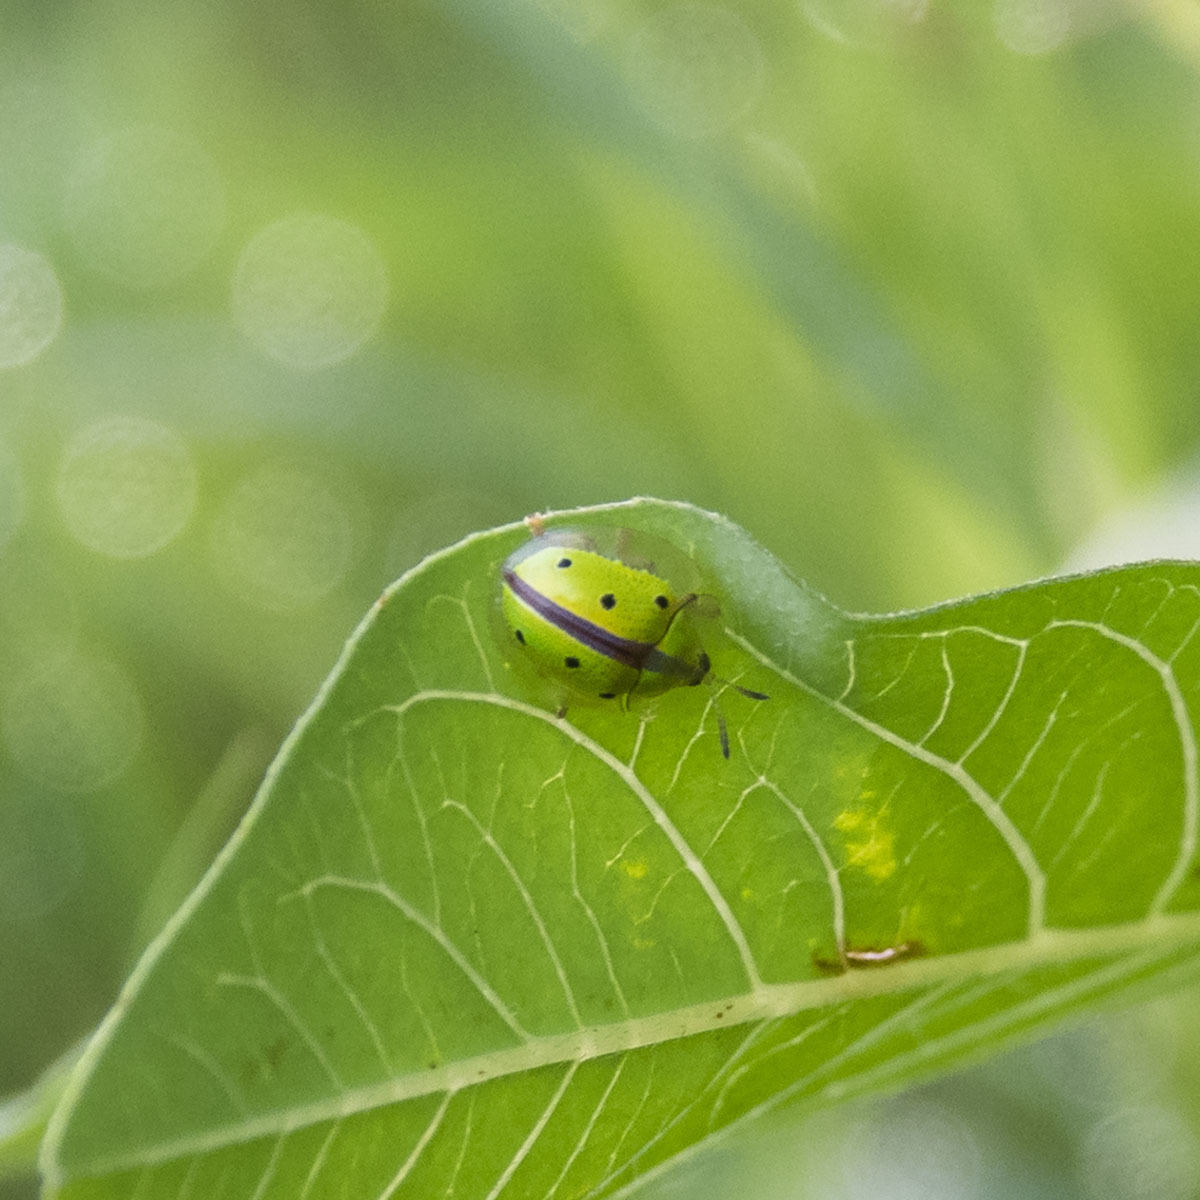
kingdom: Animalia
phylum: Arthropoda
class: Insecta
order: Coleoptera
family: Chrysomelidae
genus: Chiridopsis
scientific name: Chiridopsis bipunctata
